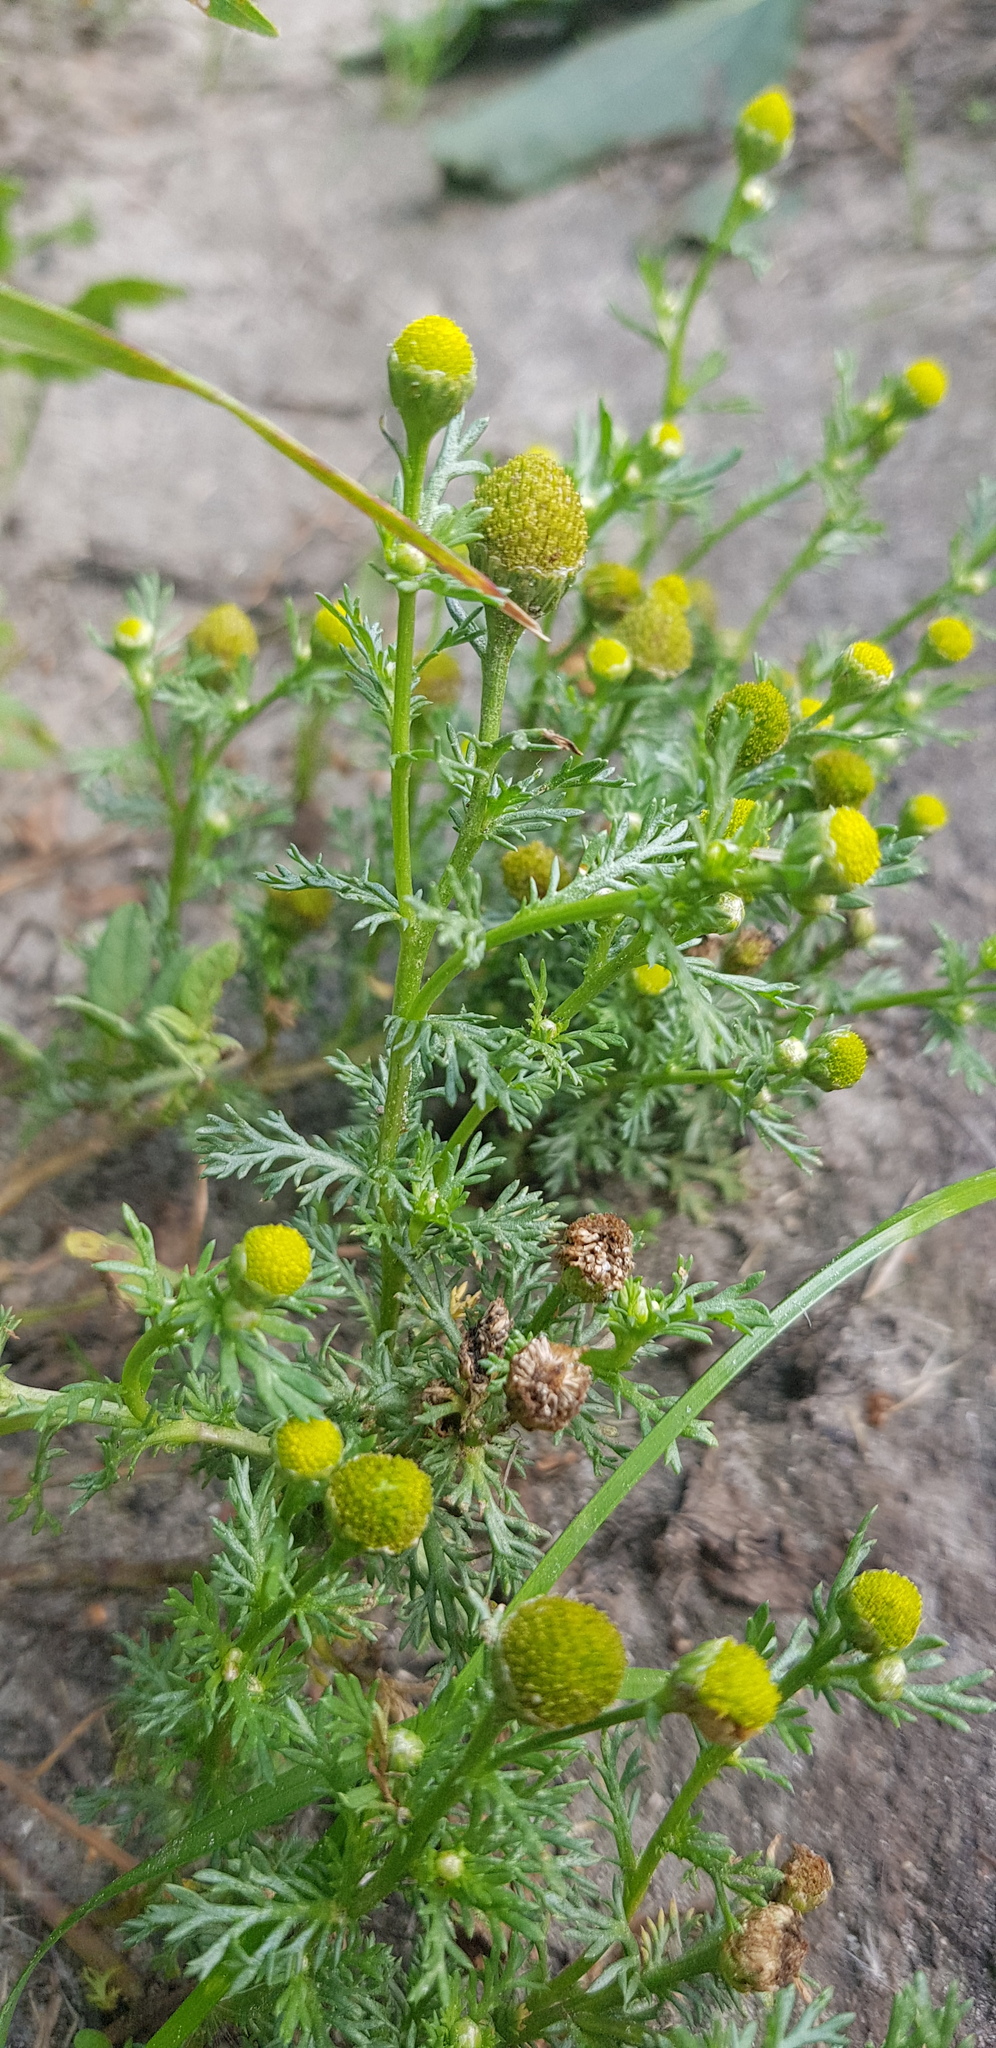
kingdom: Plantae
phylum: Tracheophyta
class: Magnoliopsida
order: Asterales
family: Asteraceae
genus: Matricaria
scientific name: Matricaria discoidea
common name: Disc mayweed
